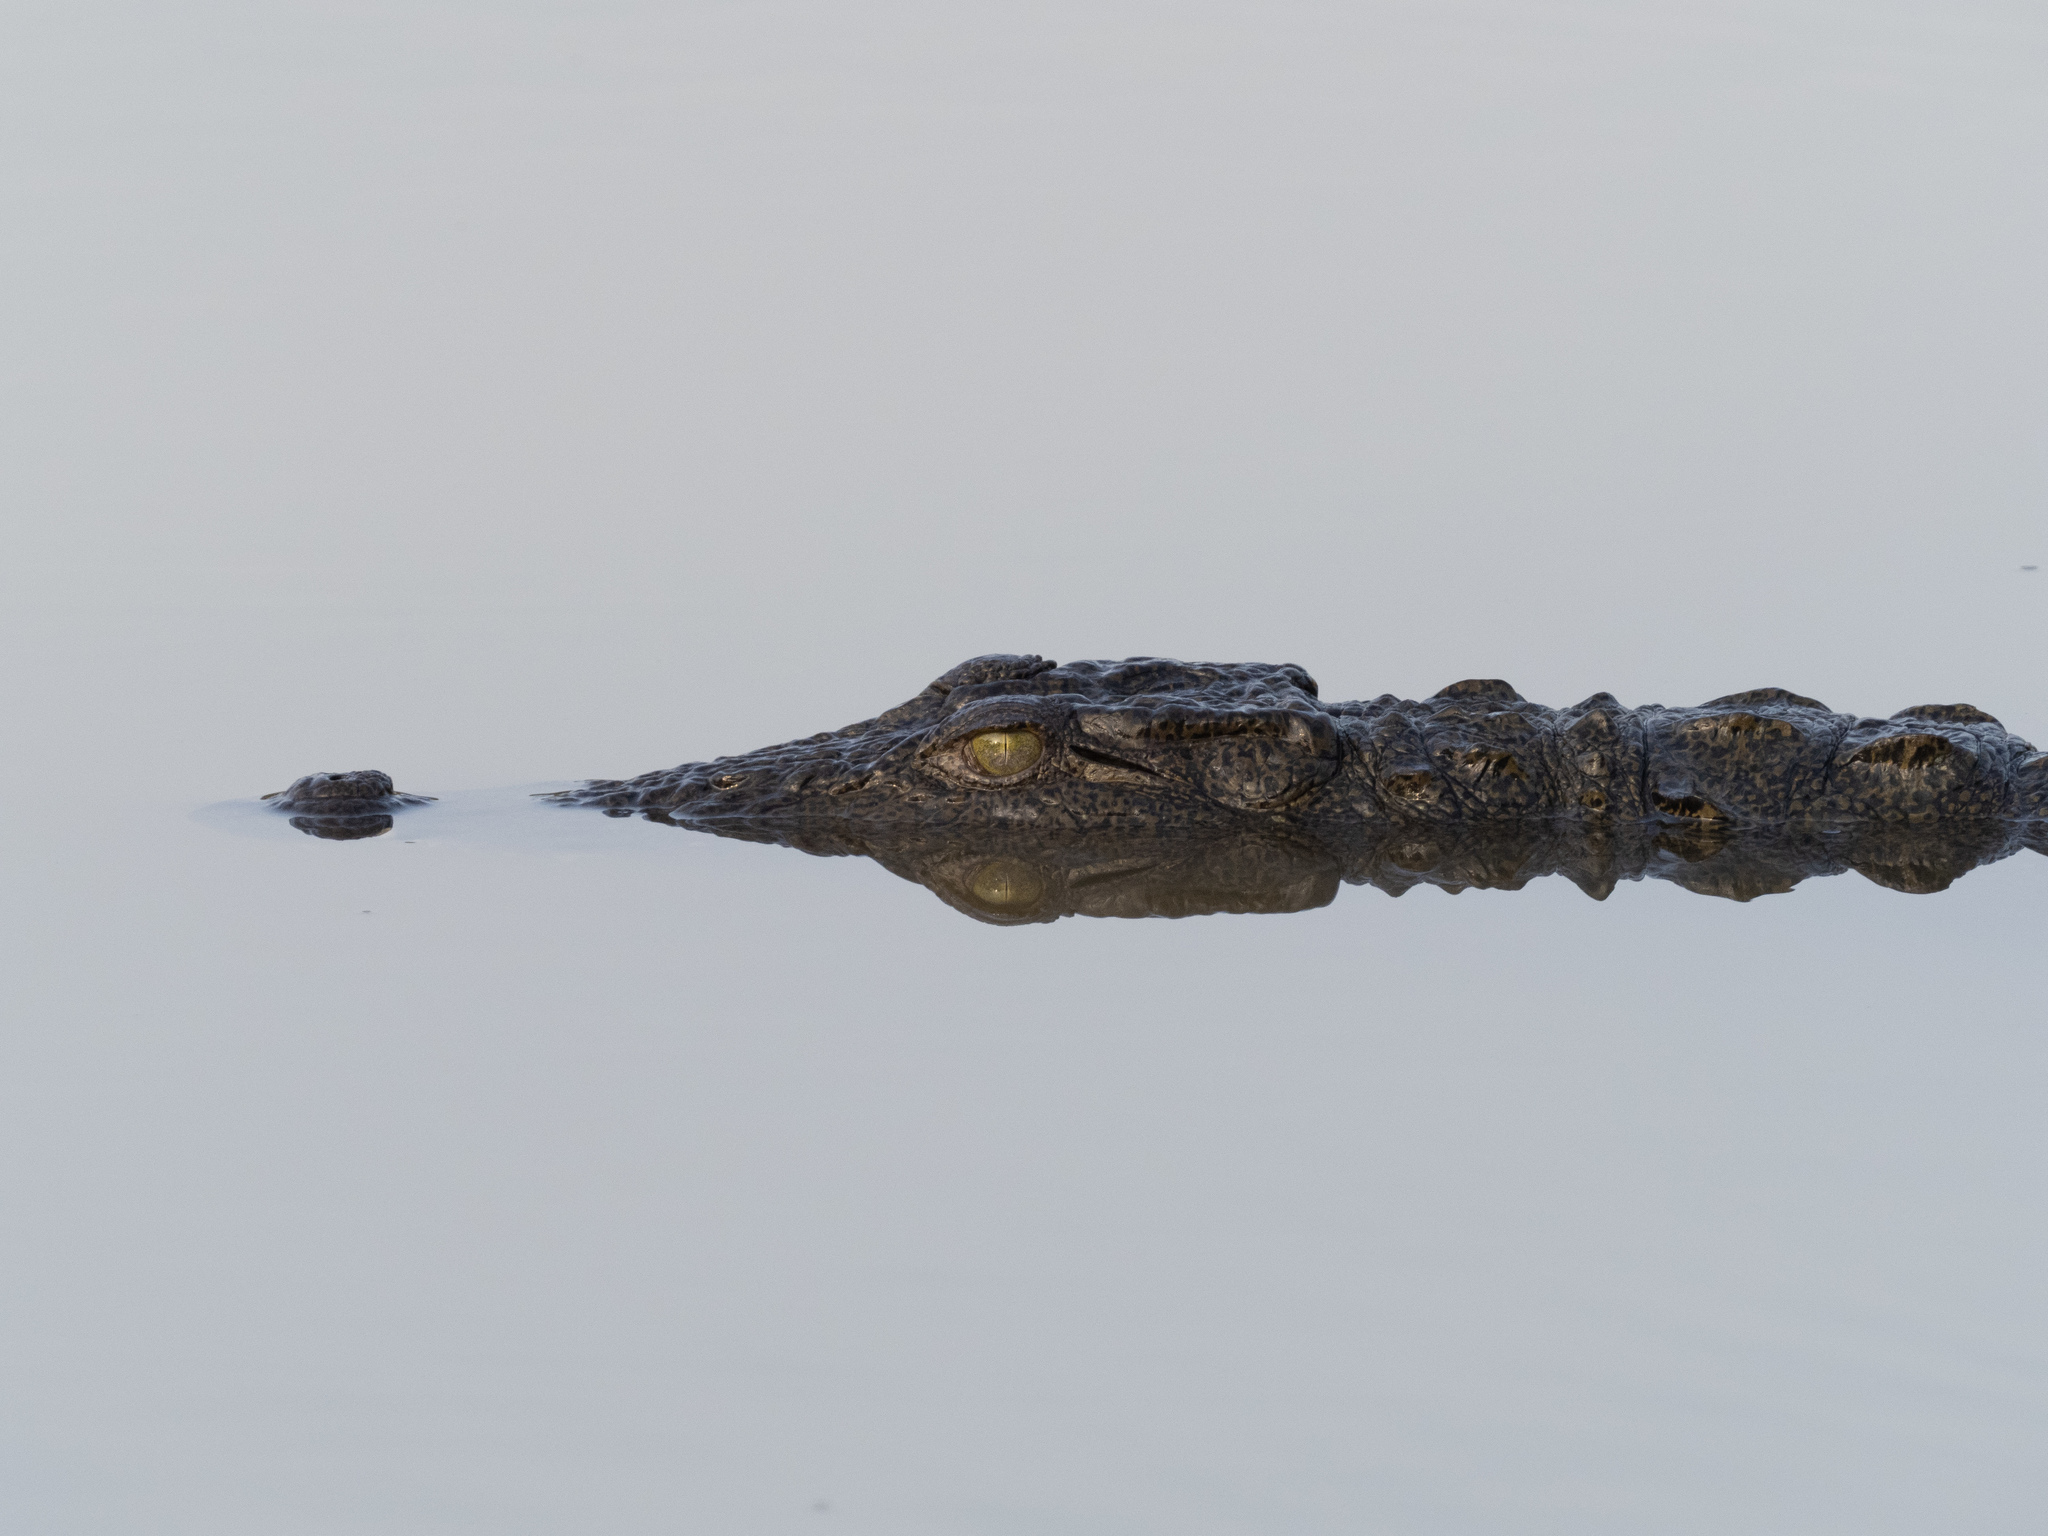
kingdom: Animalia
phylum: Chordata
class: Crocodylia
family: Crocodylidae
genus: Crocodylus
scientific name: Crocodylus palustris
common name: Mugger crocodile
